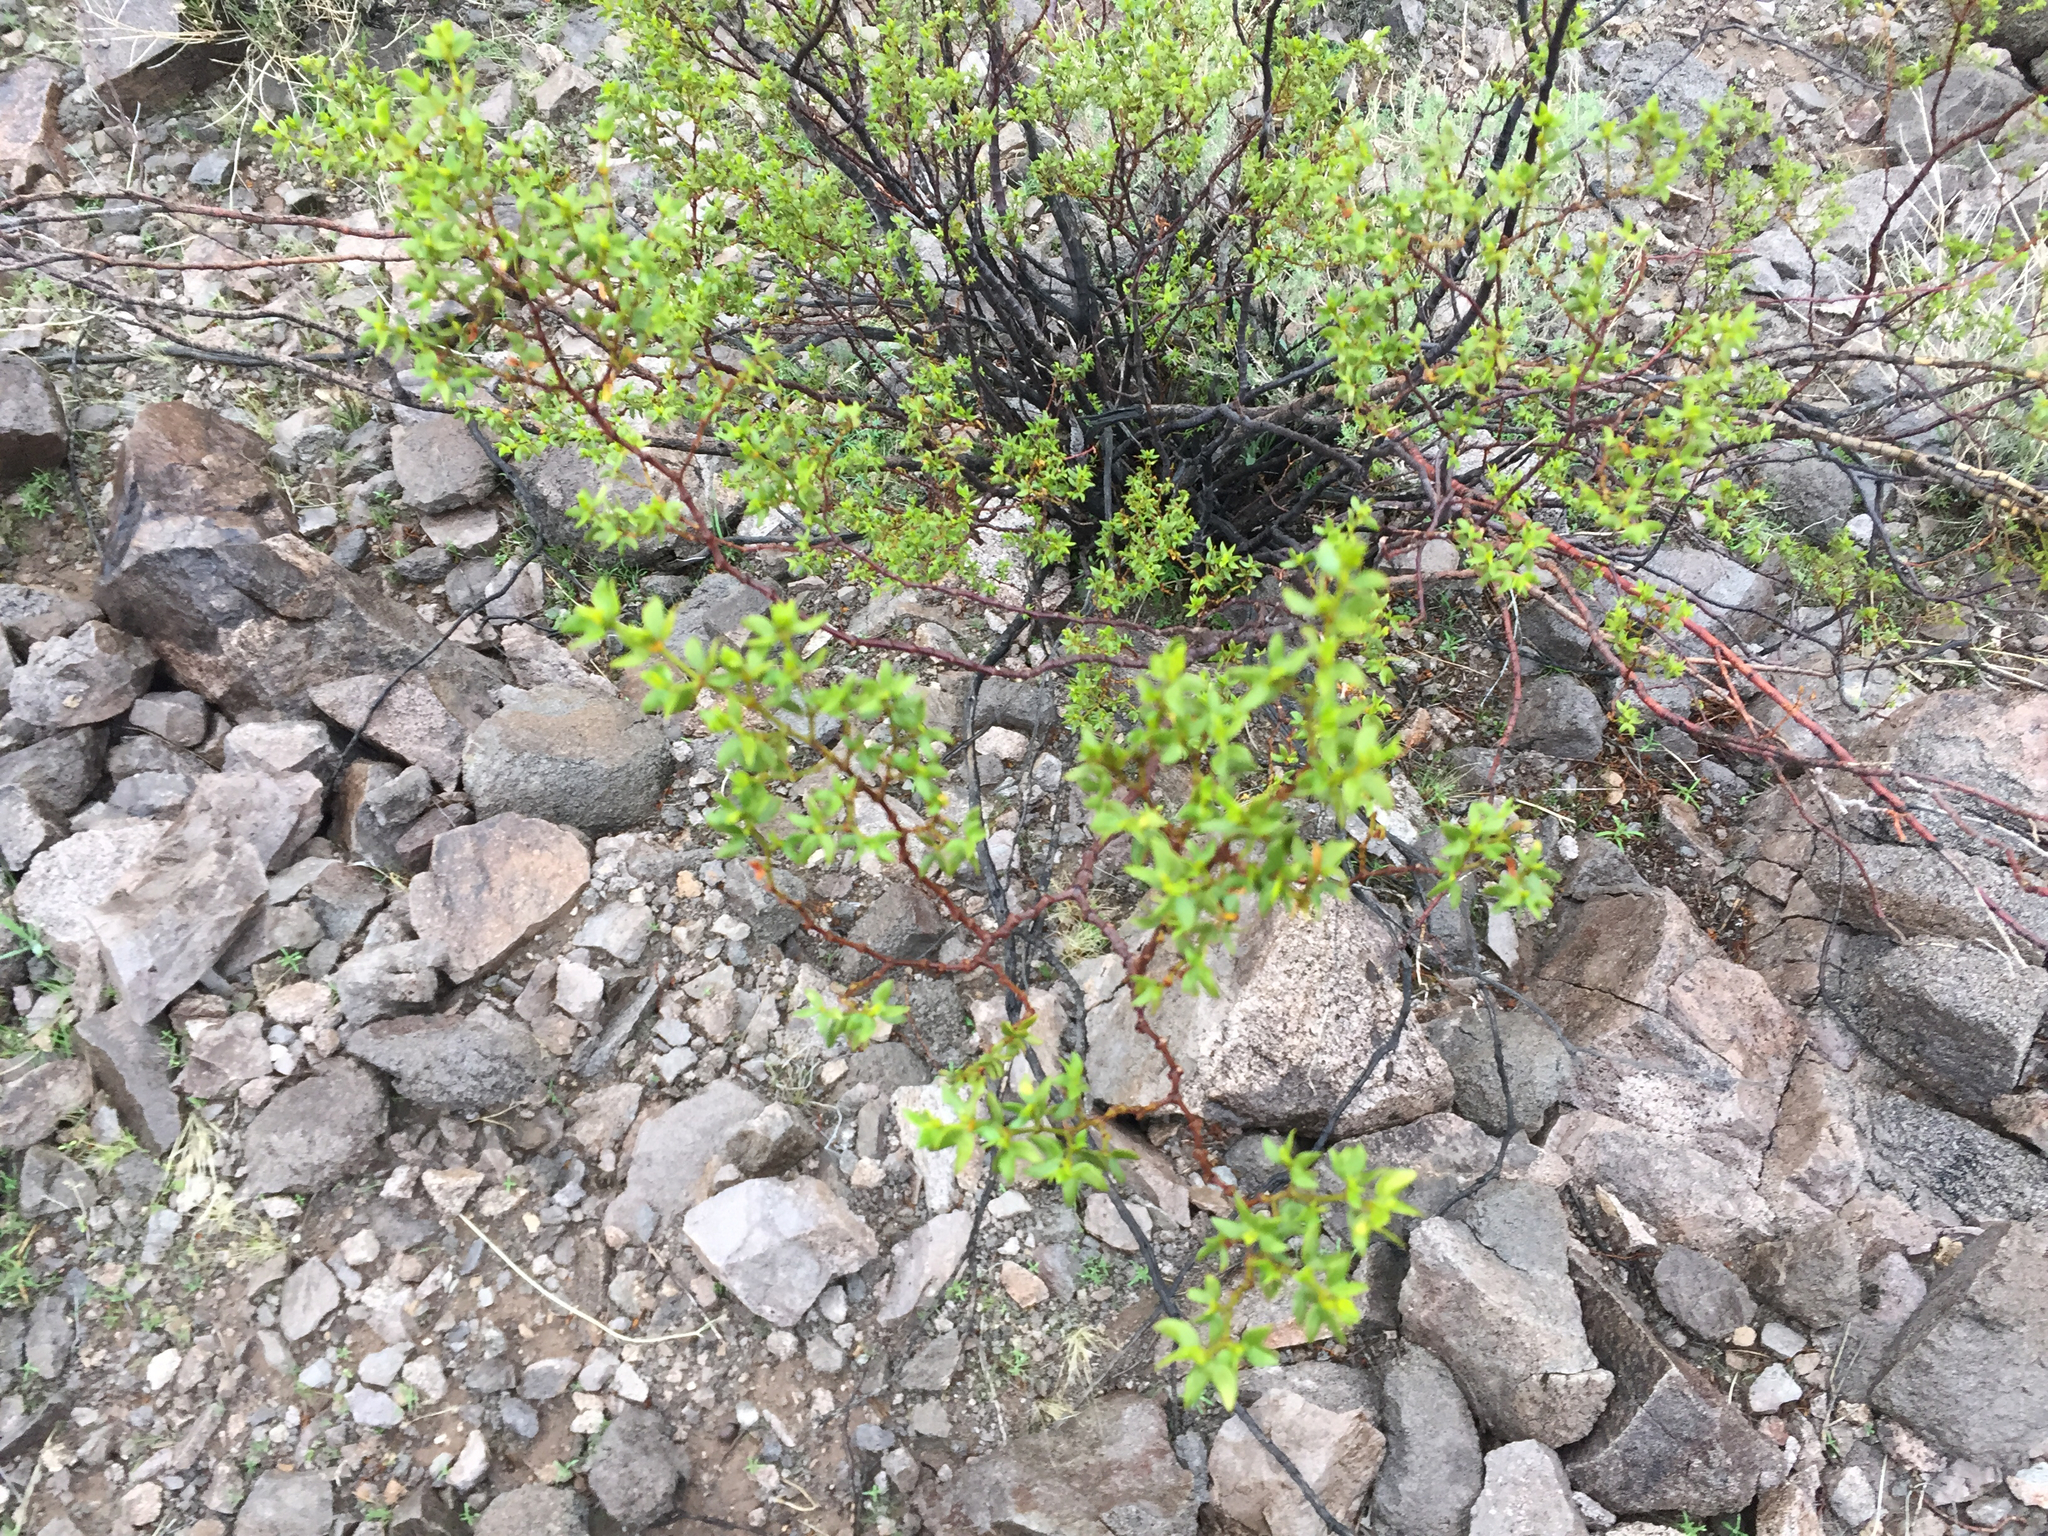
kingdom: Plantae
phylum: Tracheophyta
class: Magnoliopsida
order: Zygophyllales
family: Zygophyllaceae
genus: Larrea
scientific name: Larrea tridentata
